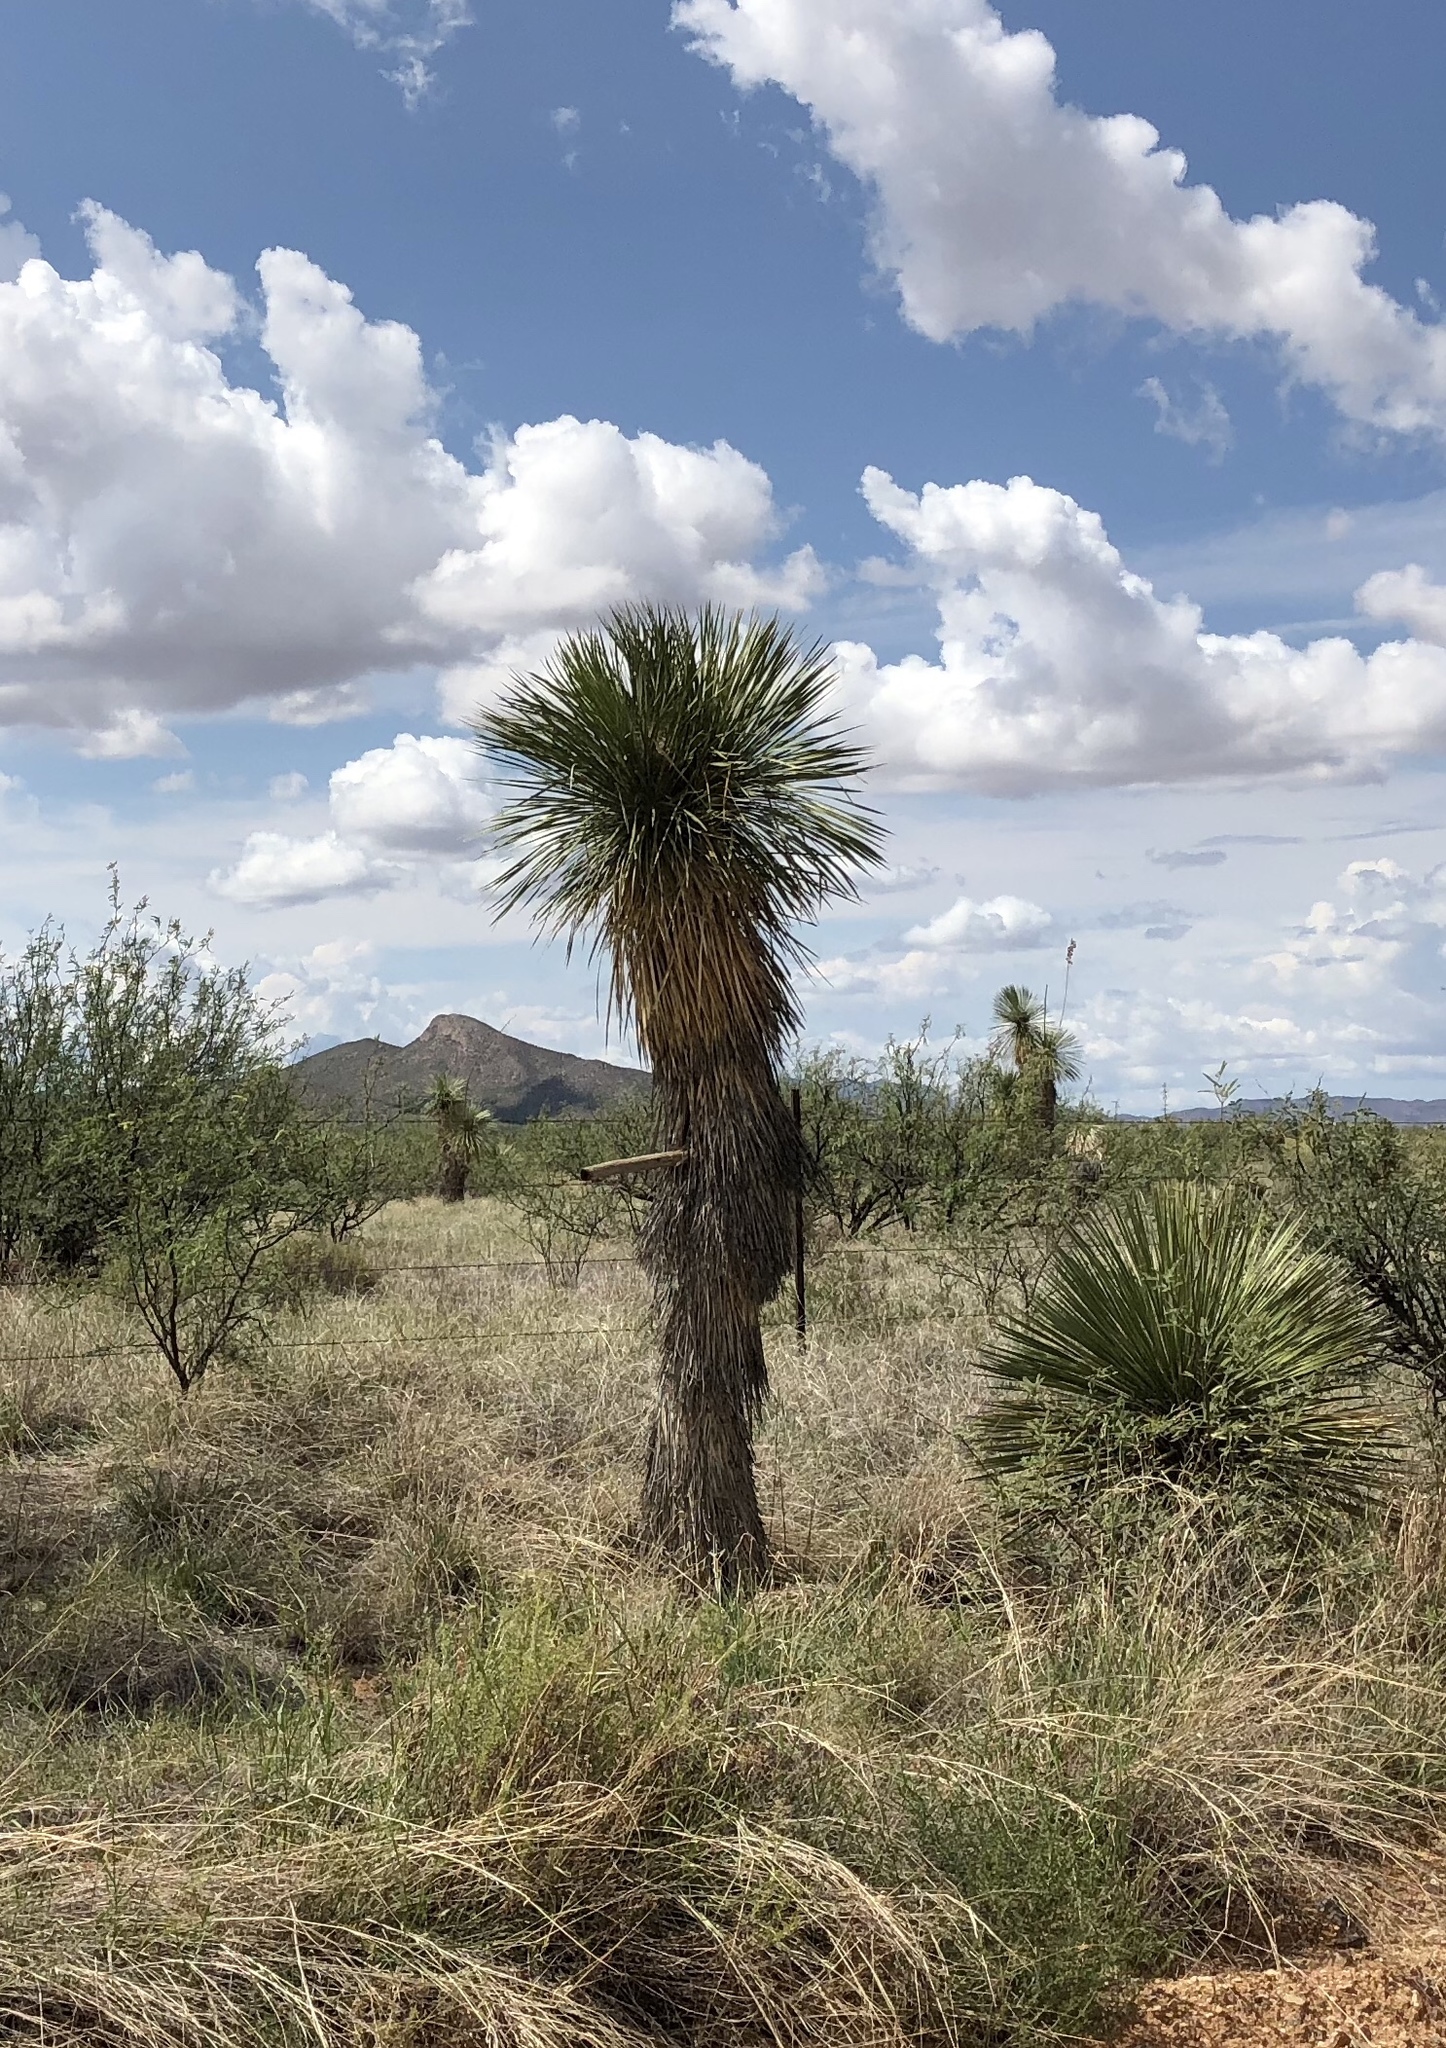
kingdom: Plantae
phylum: Tracheophyta
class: Liliopsida
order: Asparagales
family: Asparagaceae
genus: Yucca
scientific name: Yucca elata
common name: Palmella
